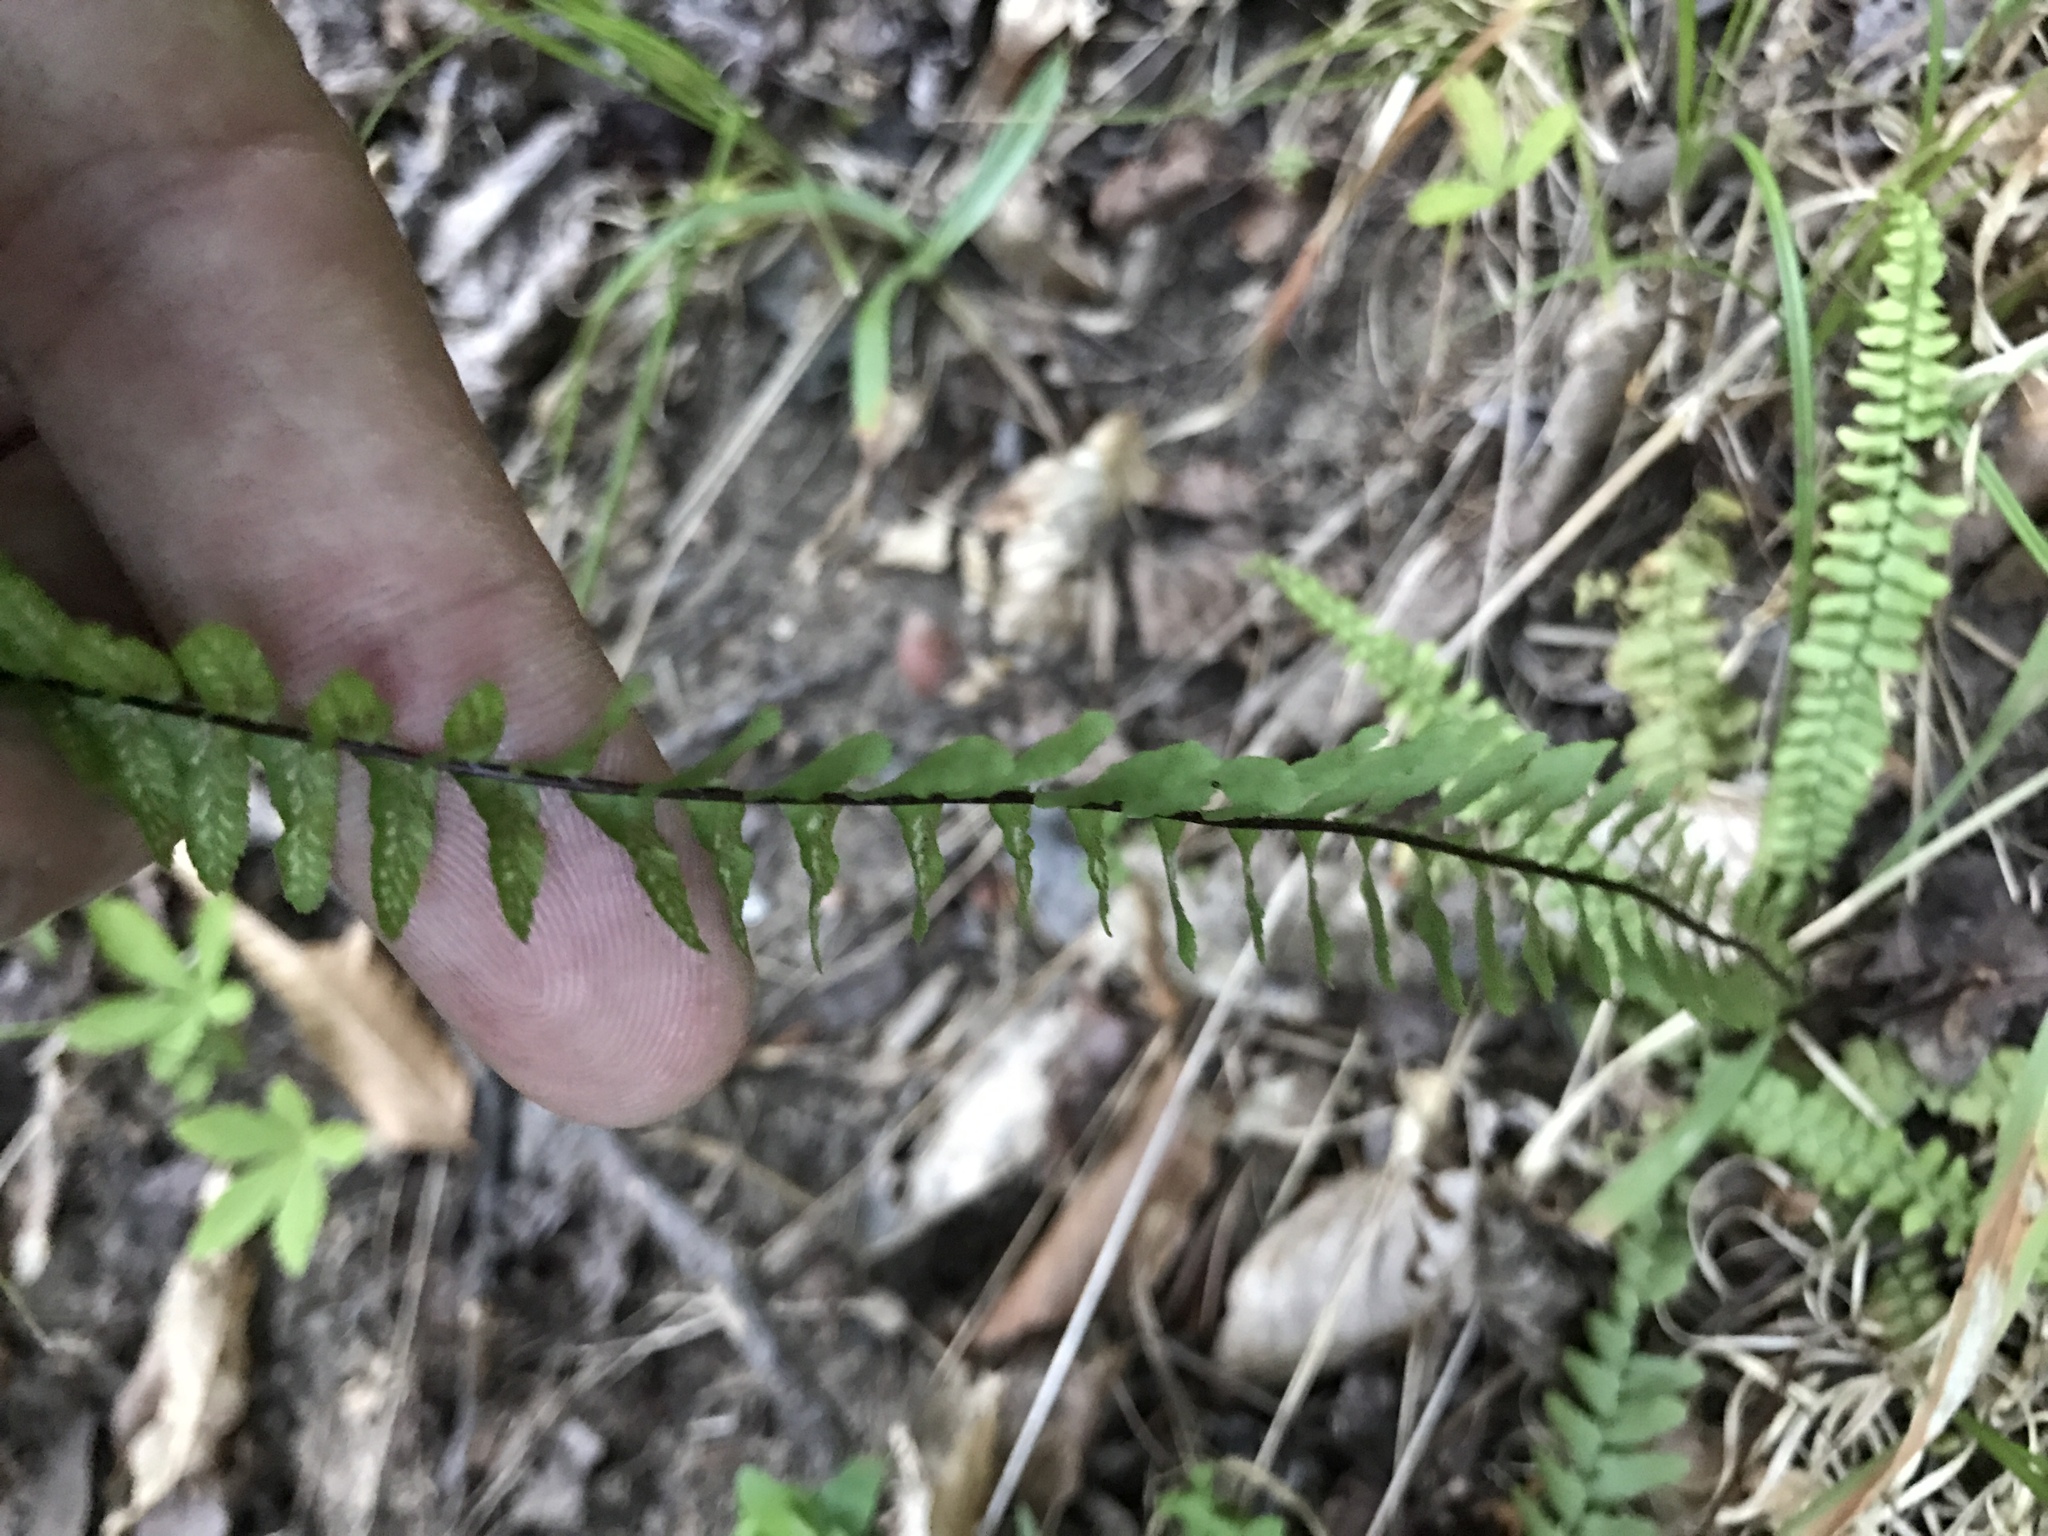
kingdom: Plantae
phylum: Tracheophyta
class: Polypodiopsida
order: Polypodiales
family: Aspleniaceae
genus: Asplenium
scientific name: Asplenium platyneuron
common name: Ebony spleenwort
